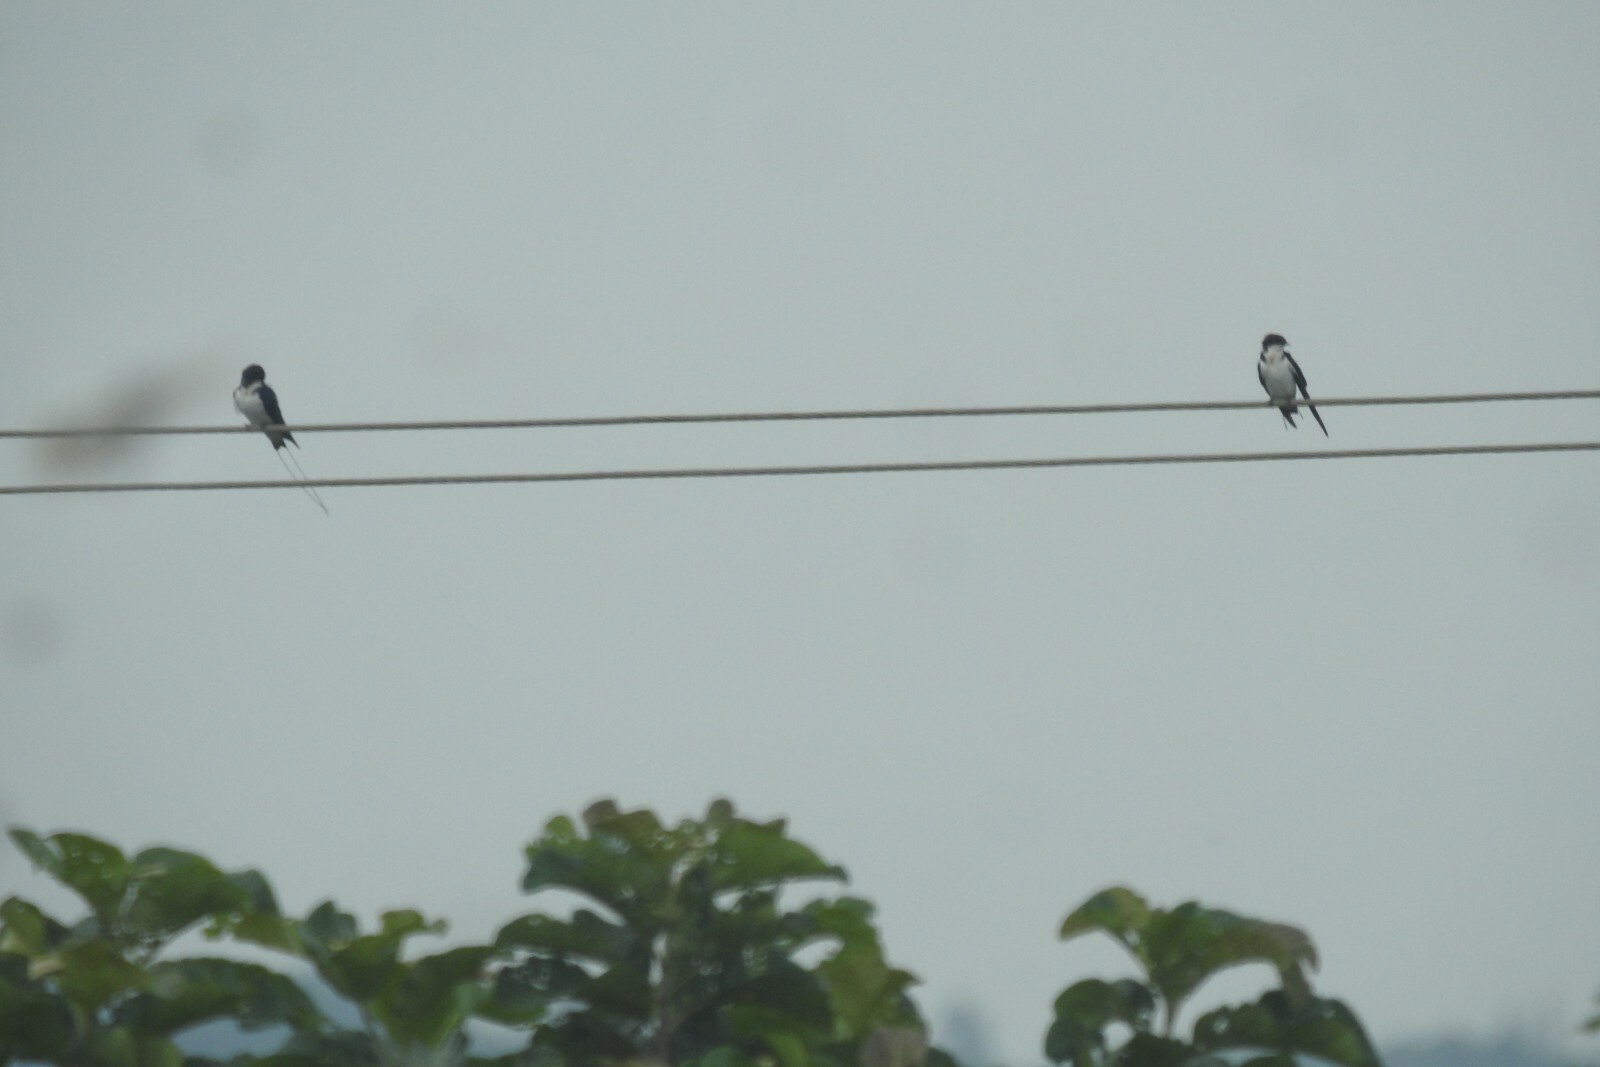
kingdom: Animalia
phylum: Chordata
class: Aves
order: Passeriformes
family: Hirundinidae
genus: Hirundo
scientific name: Hirundo smithii
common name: Wire-tailed swallow
